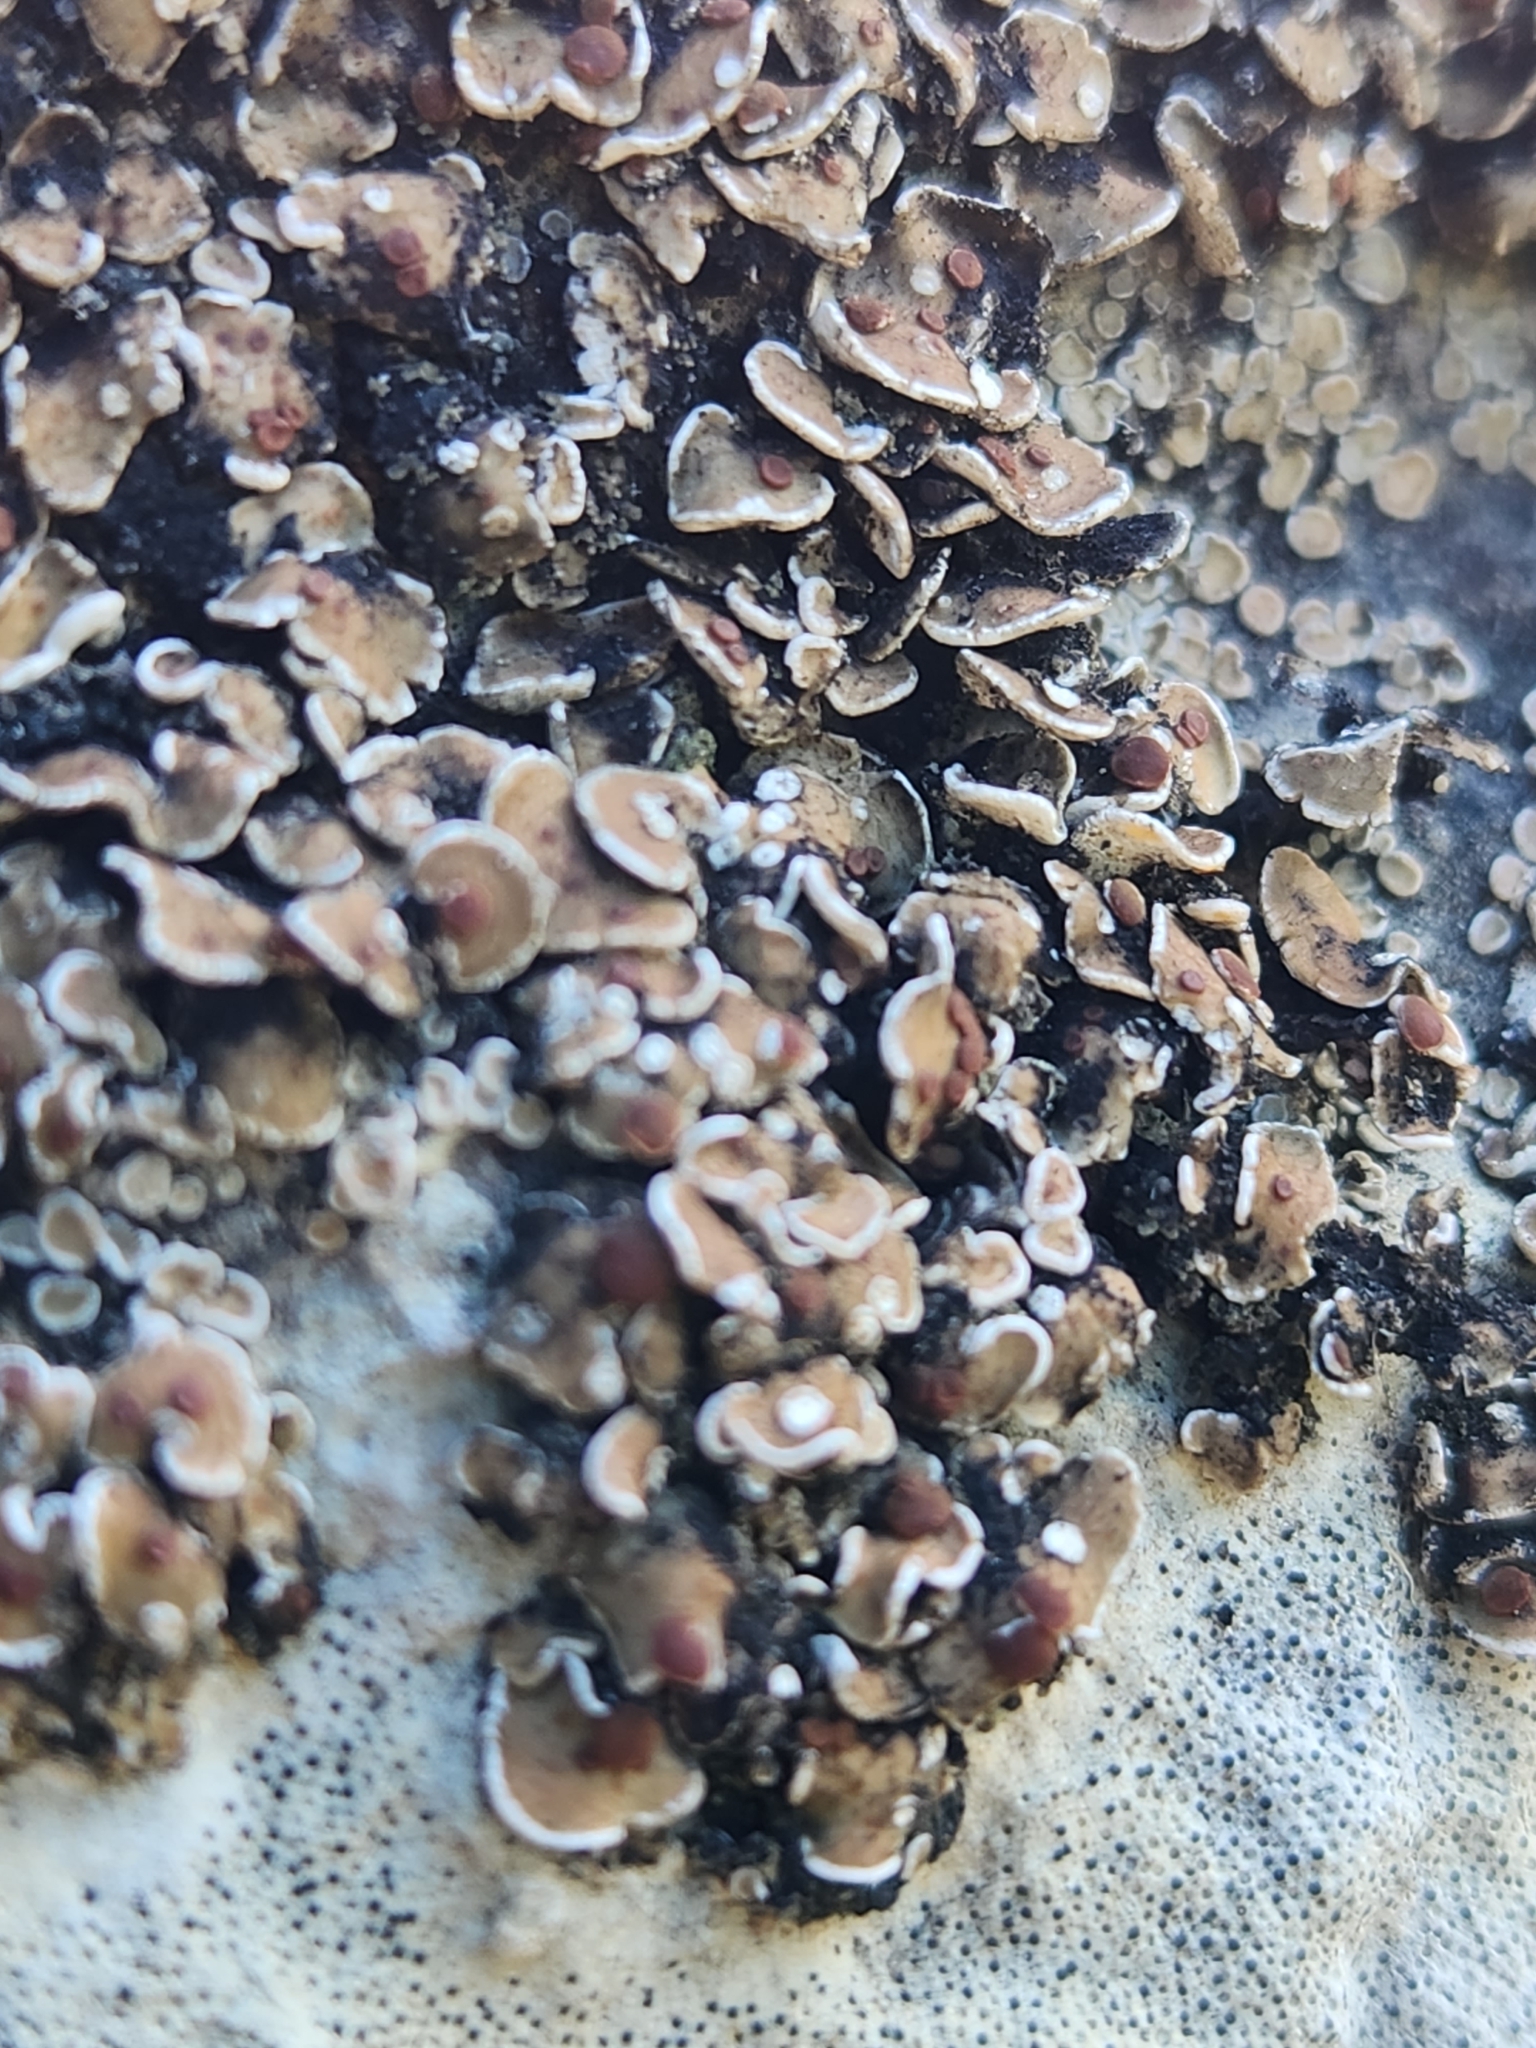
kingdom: Fungi
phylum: Ascomycota
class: Lecanoromycetes
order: Lecanorales
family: Psoraceae
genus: Psora
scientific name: Psora pseudorussellii
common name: Bordered scale lichen
